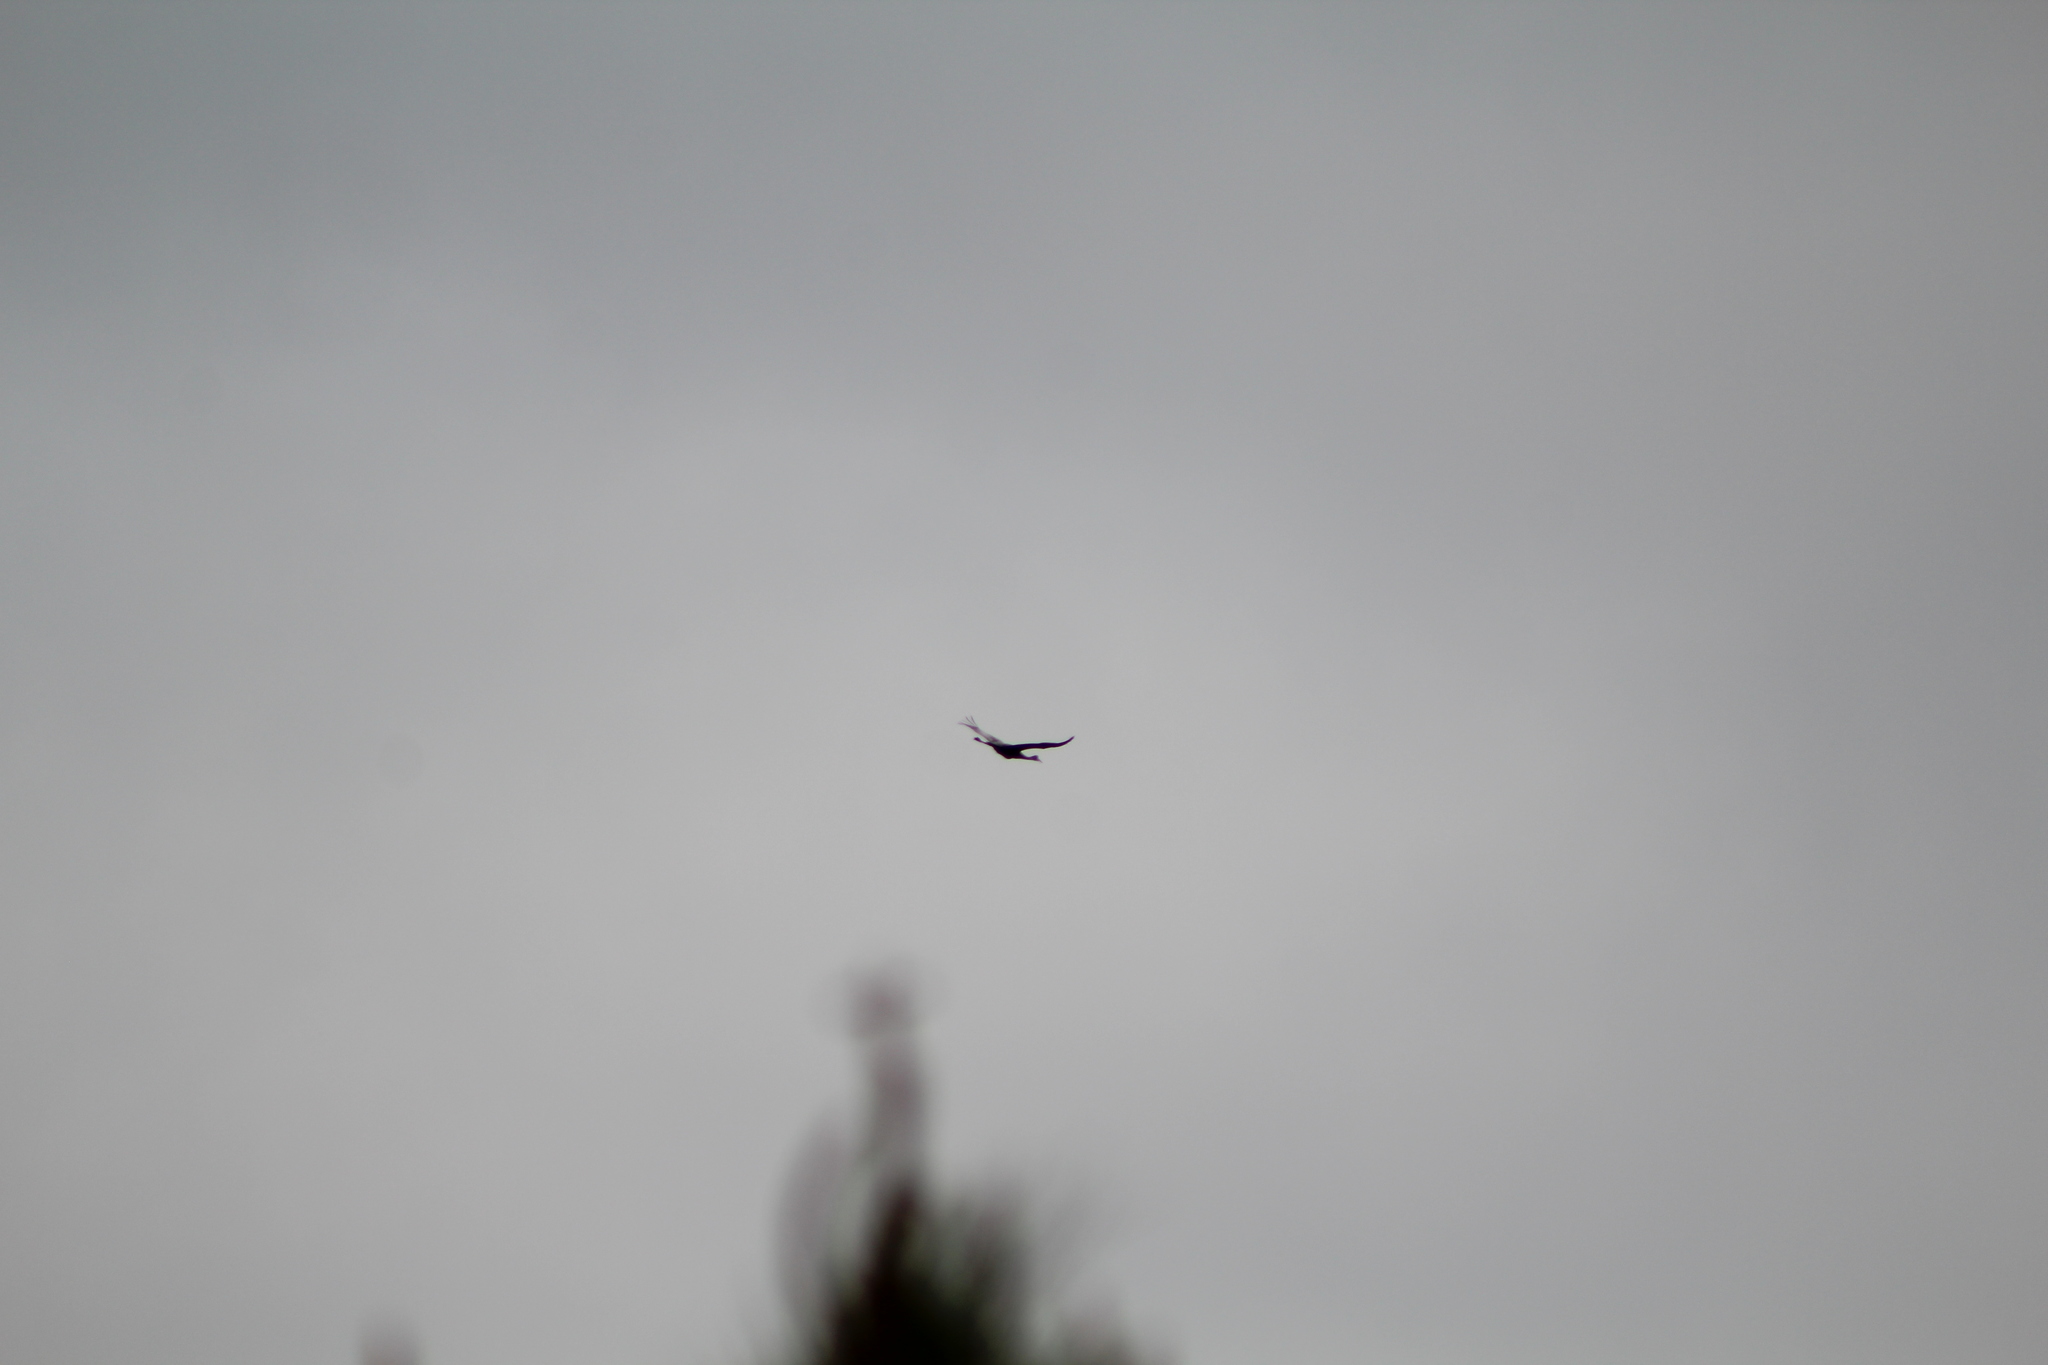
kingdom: Animalia
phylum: Chordata
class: Aves
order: Gruiformes
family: Gruidae
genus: Grus
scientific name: Grus canadensis
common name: Sandhill crane
